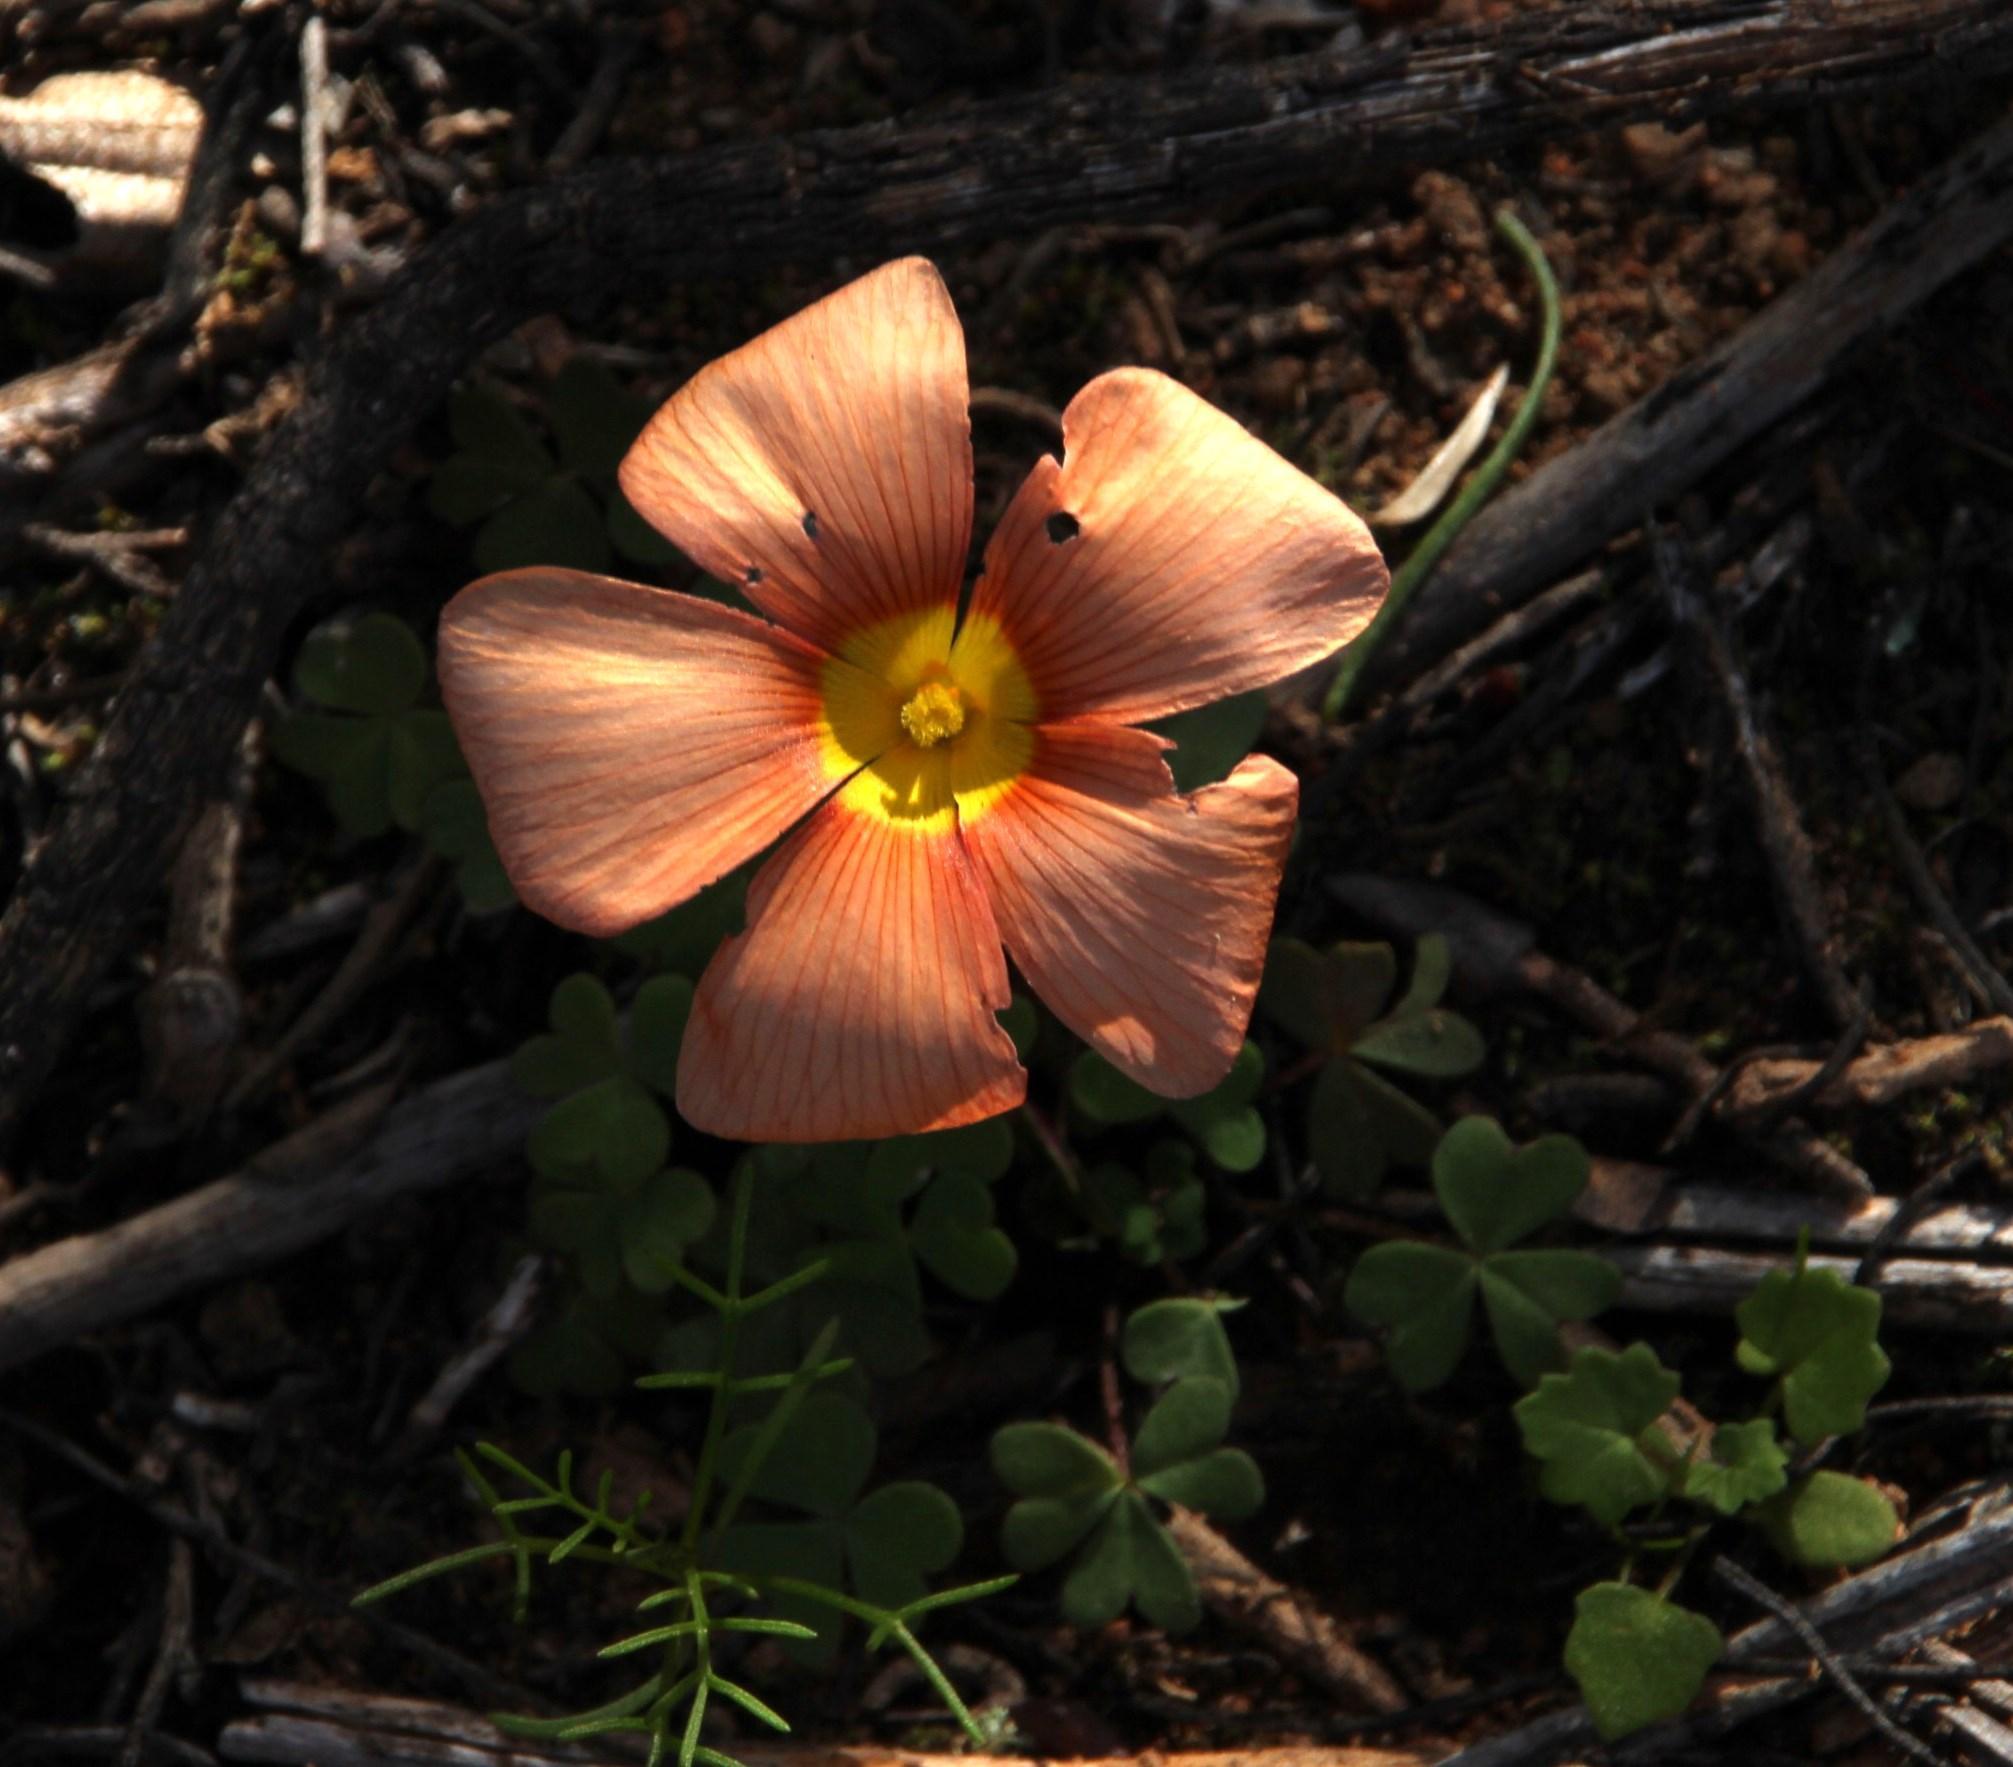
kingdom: Plantae
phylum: Tracheophyta
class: Magnoliopsida
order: Oxalidales
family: Oxalidaceae
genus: Oxalis
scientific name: Oxalis obtusa
